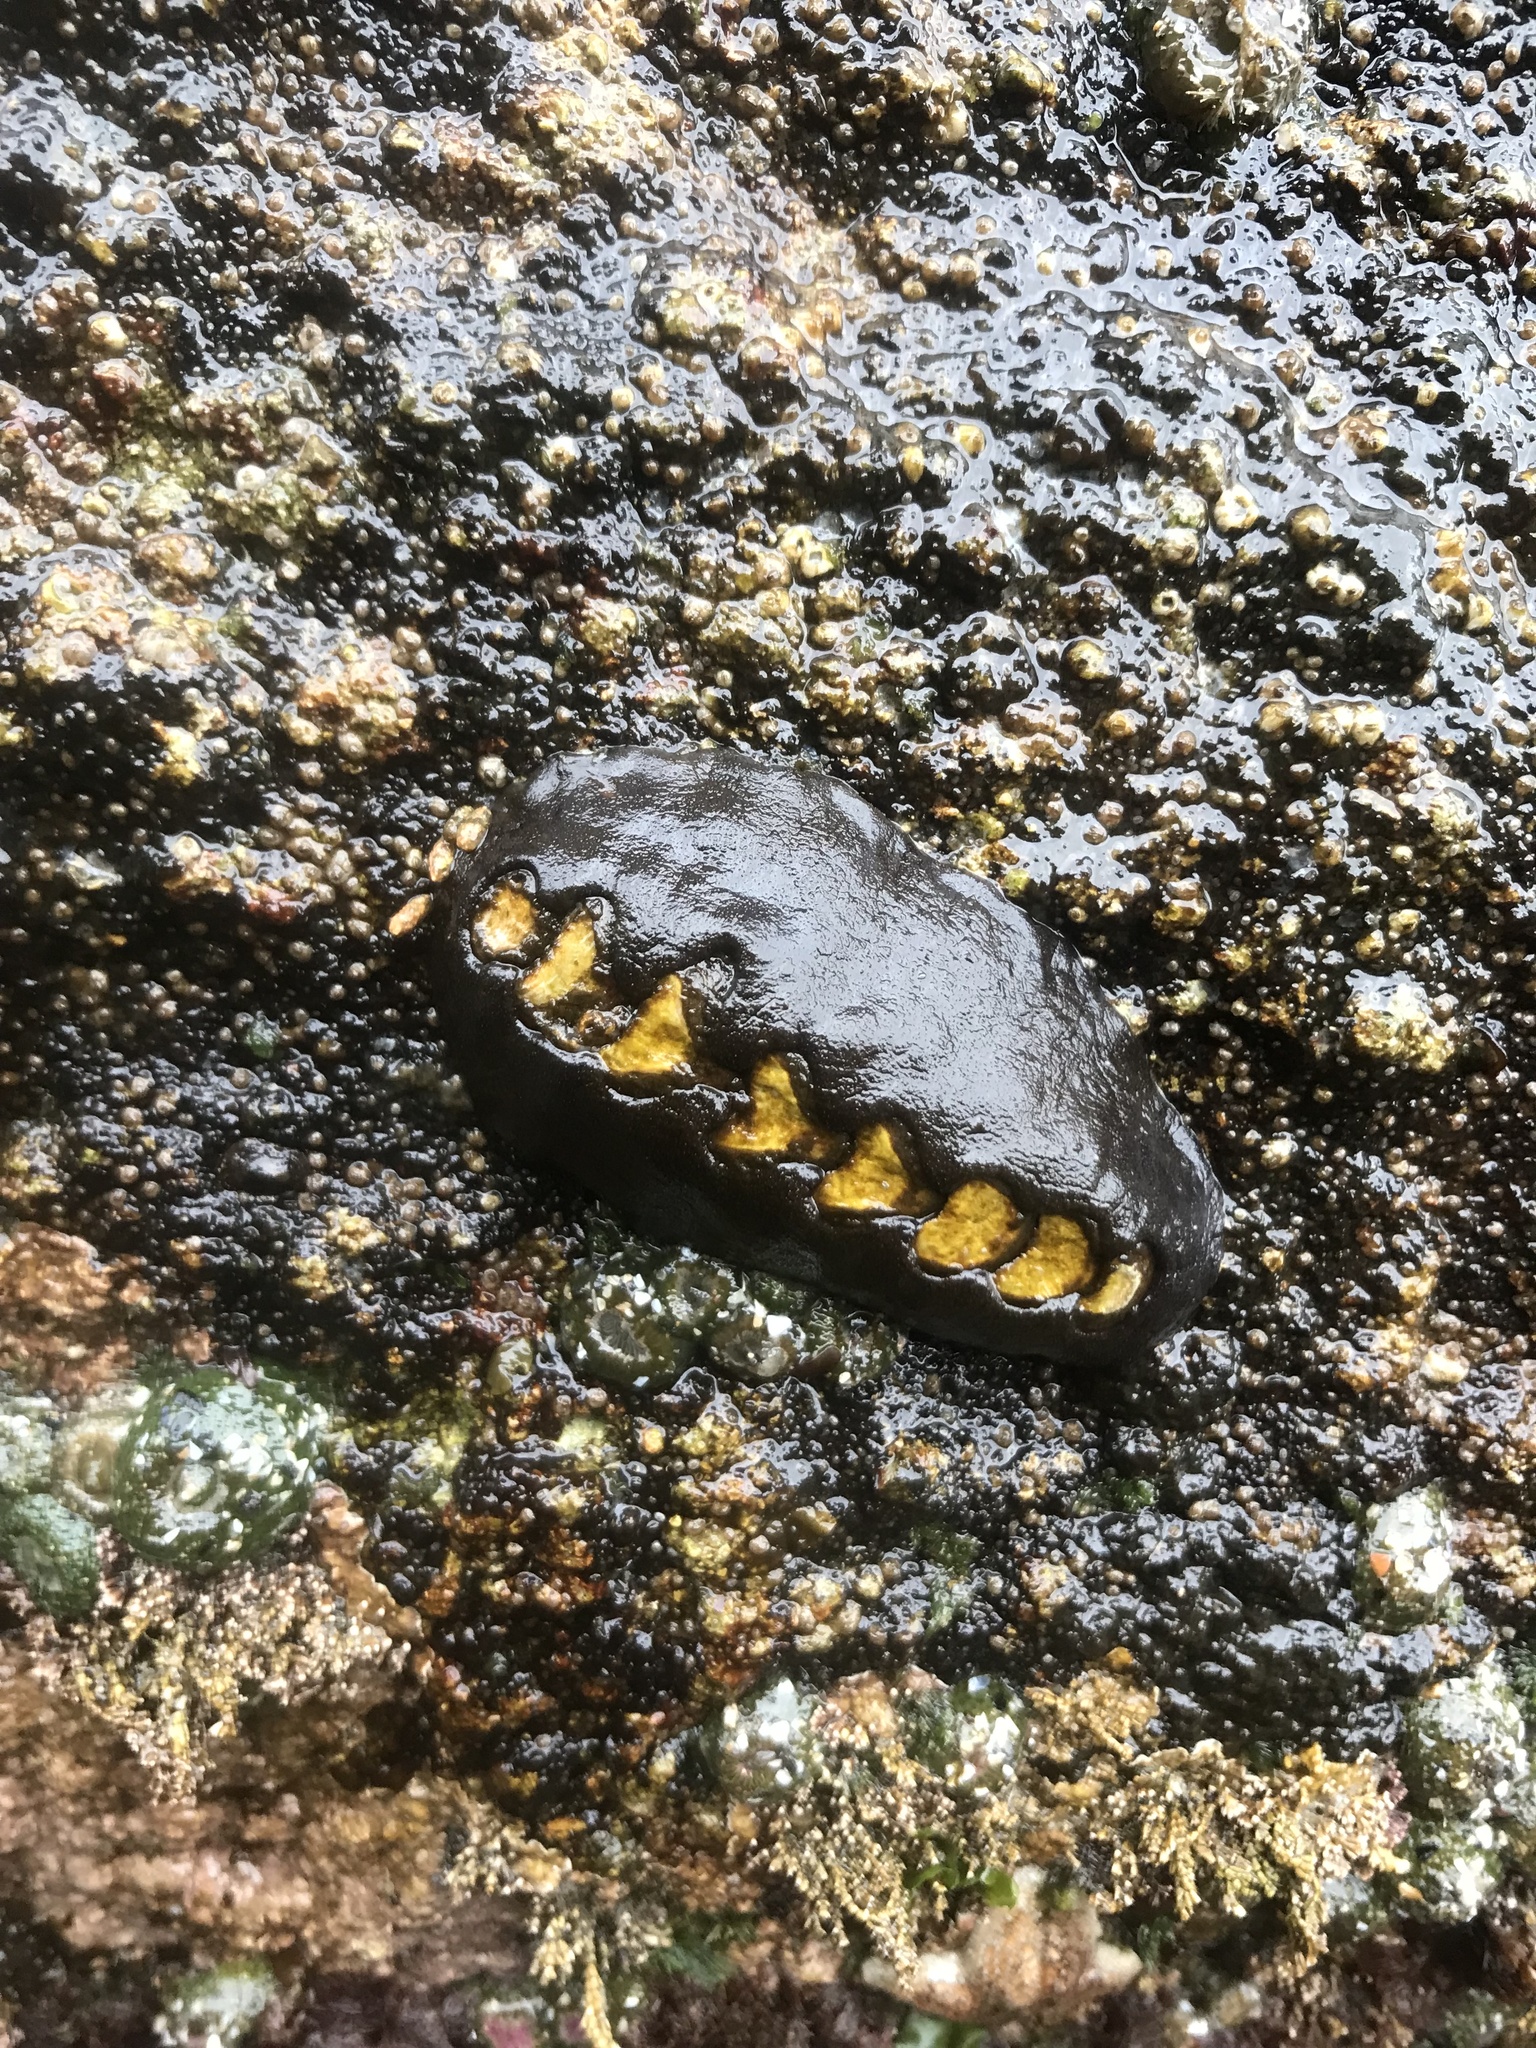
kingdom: Animalia
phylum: Mollusca
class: Polyplacophora
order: Chitonida
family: Mopaliidae
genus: Katharina
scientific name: Katharina tunicata
